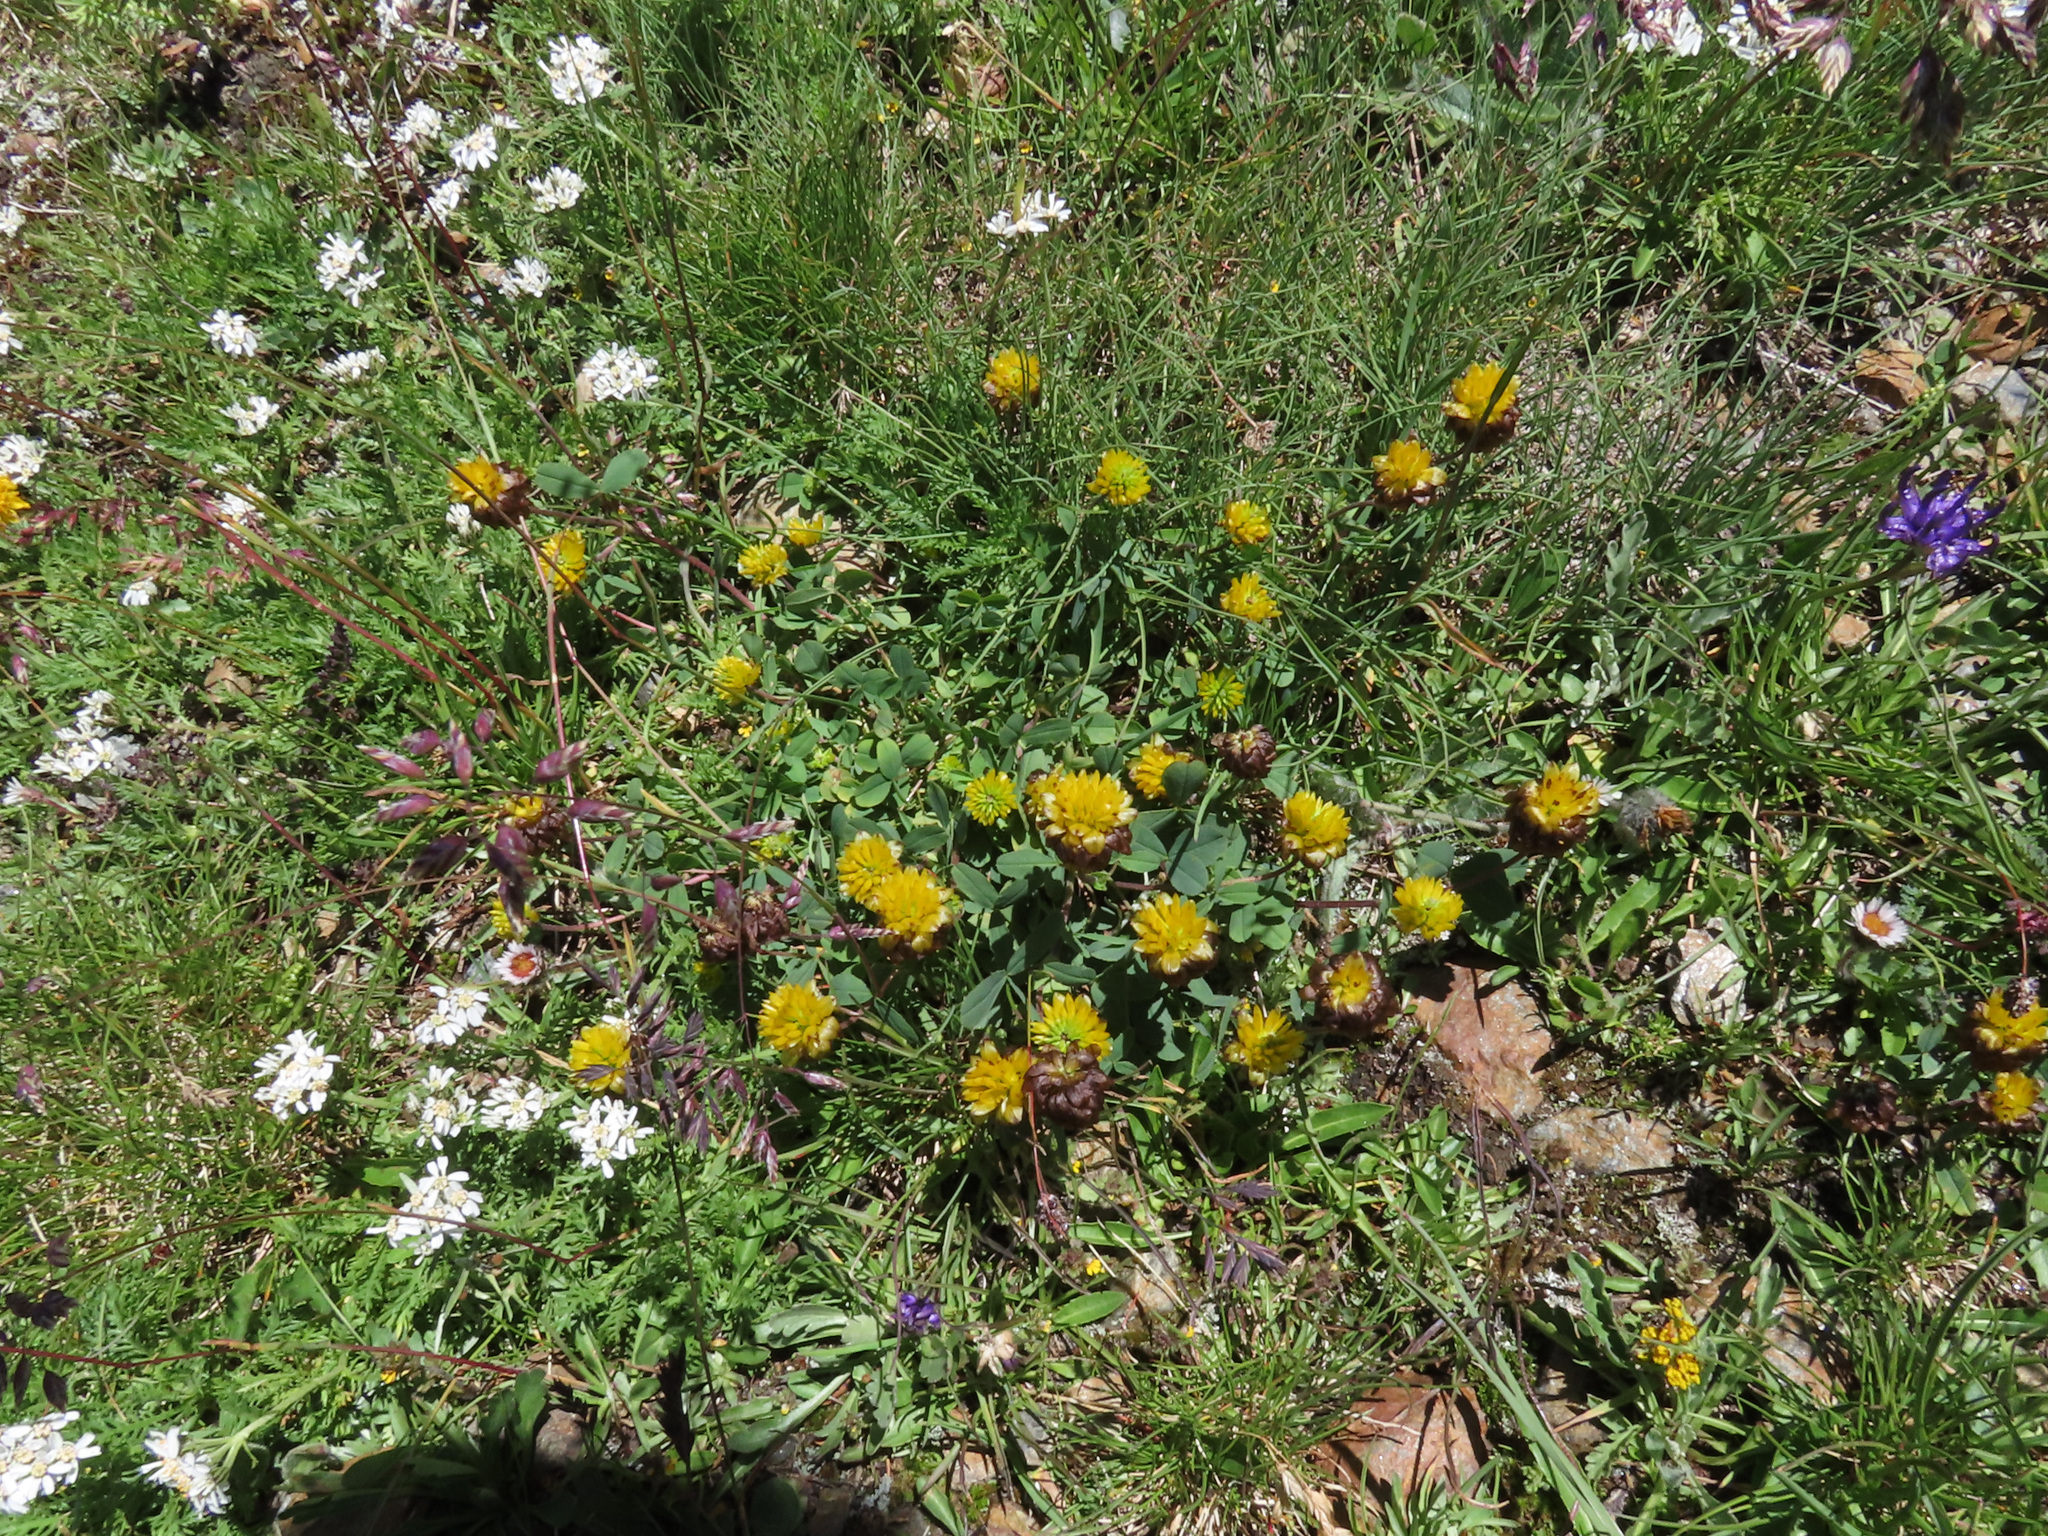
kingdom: Plantae
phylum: Tracheophyta
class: Magnoliopsida
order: Fabales
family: Fabaceae
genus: Trifolium
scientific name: Trifolium badium
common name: Brown clover
